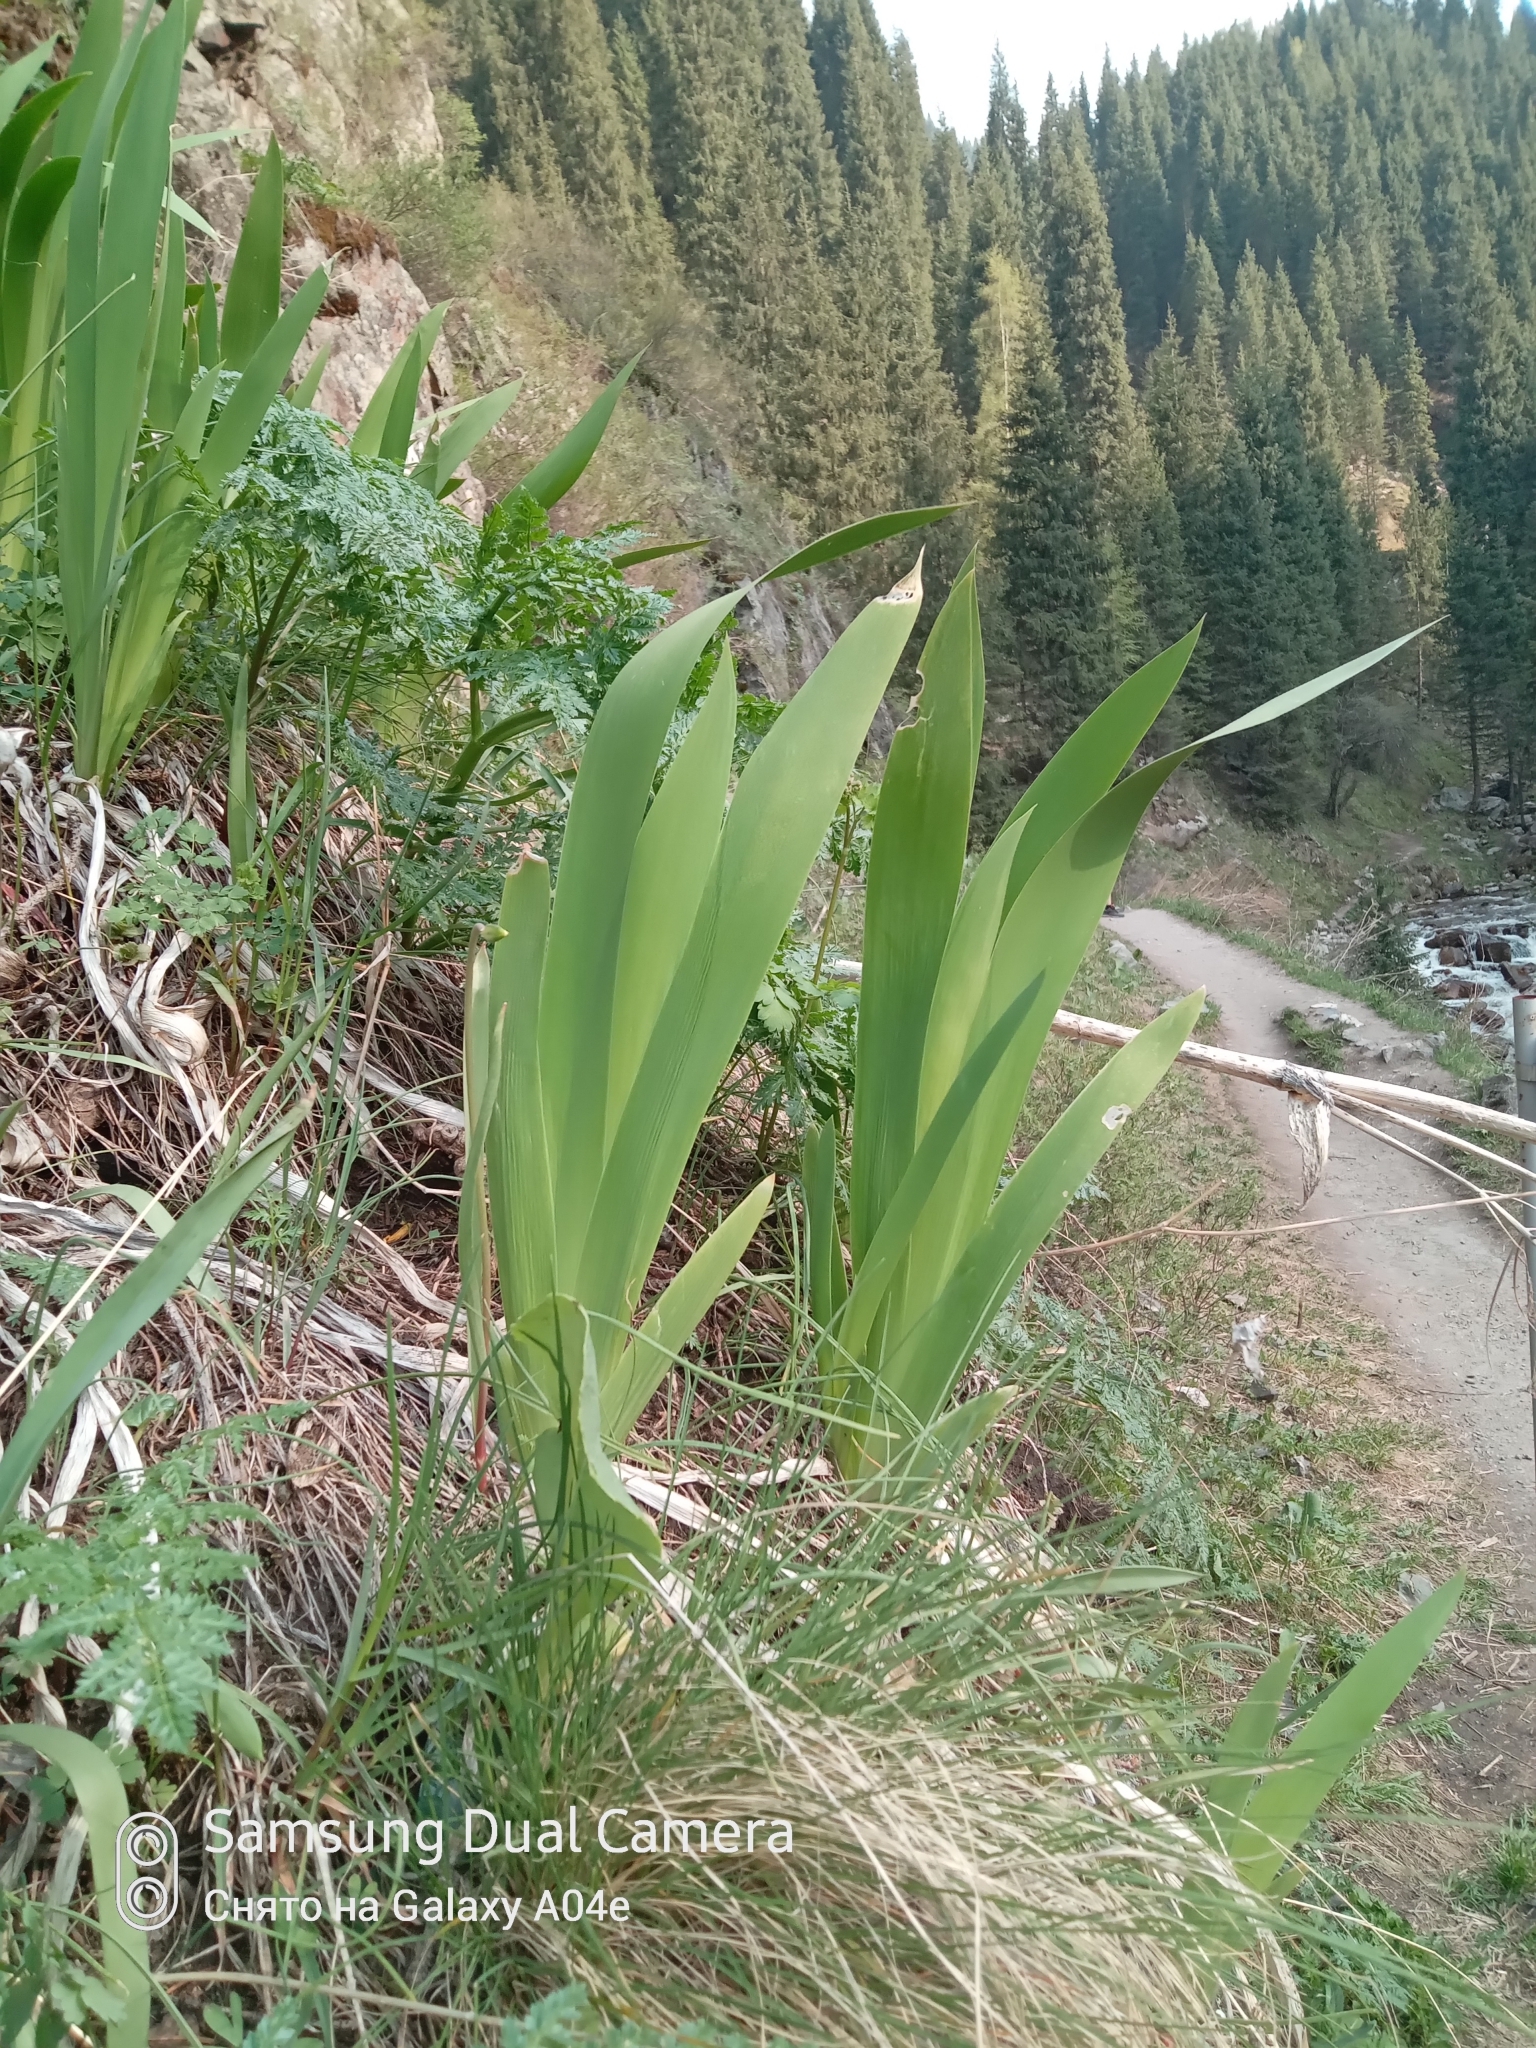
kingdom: Plantae
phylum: Tracheophyta
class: Liliopsida
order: Asparagales
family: Iridaceae
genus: Iris
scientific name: Iris alberti
